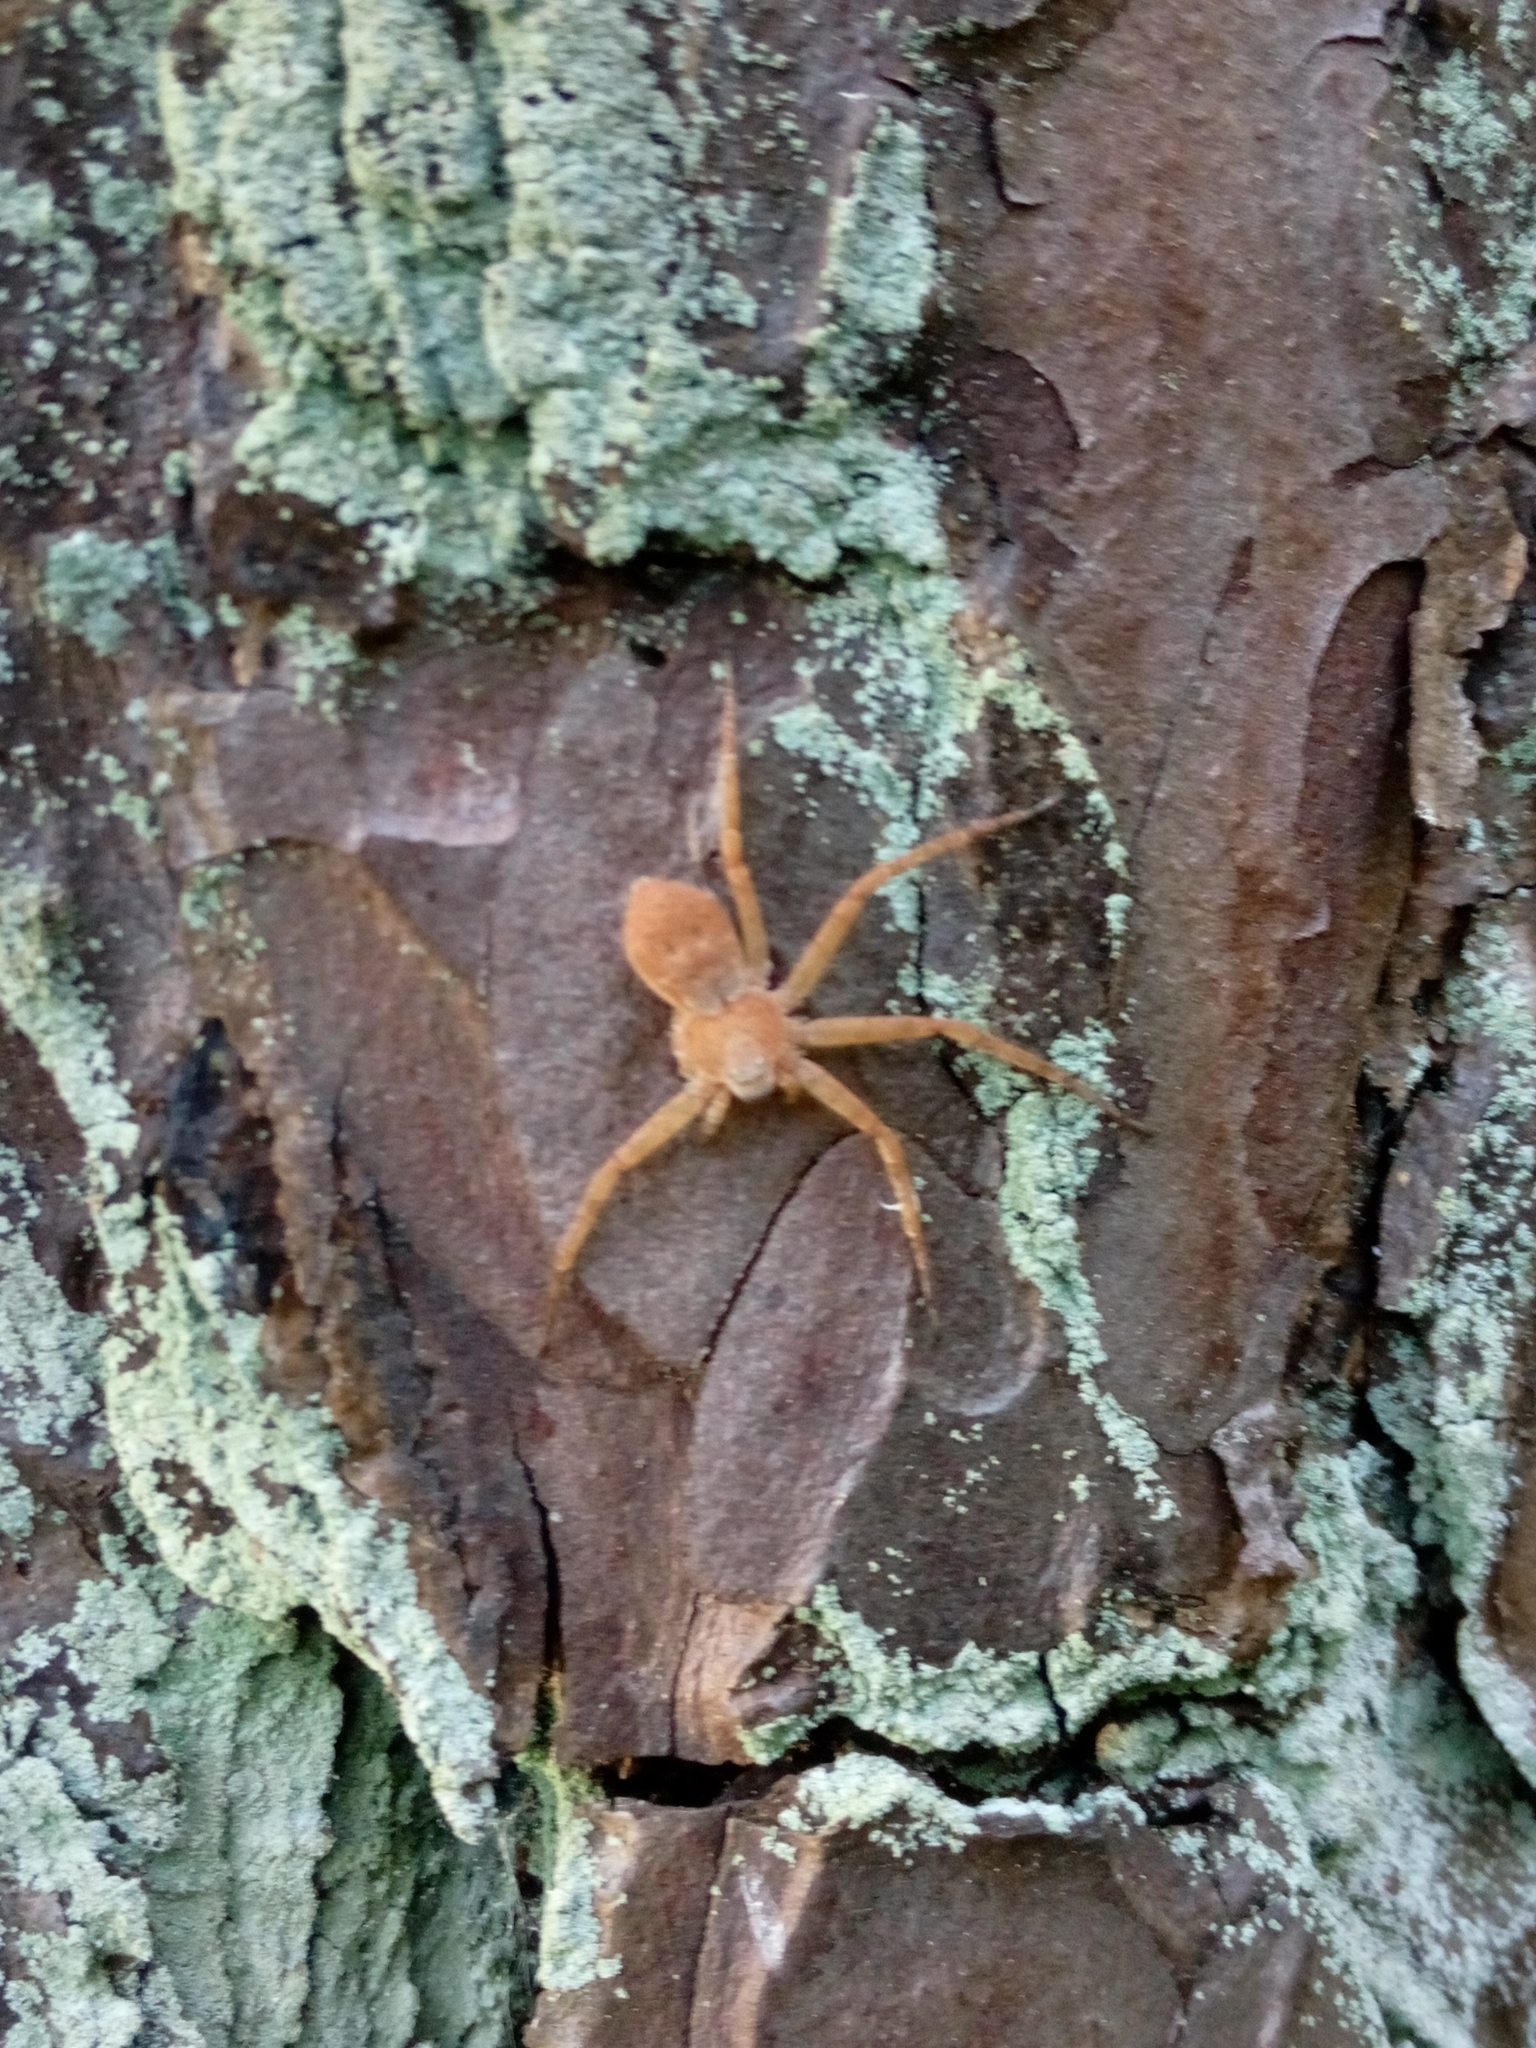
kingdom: Animalia
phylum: Arthropoda
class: Arachnida
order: Araneae
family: Philodromidae
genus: Philodromus
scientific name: Philodromus fuscomarginatus
